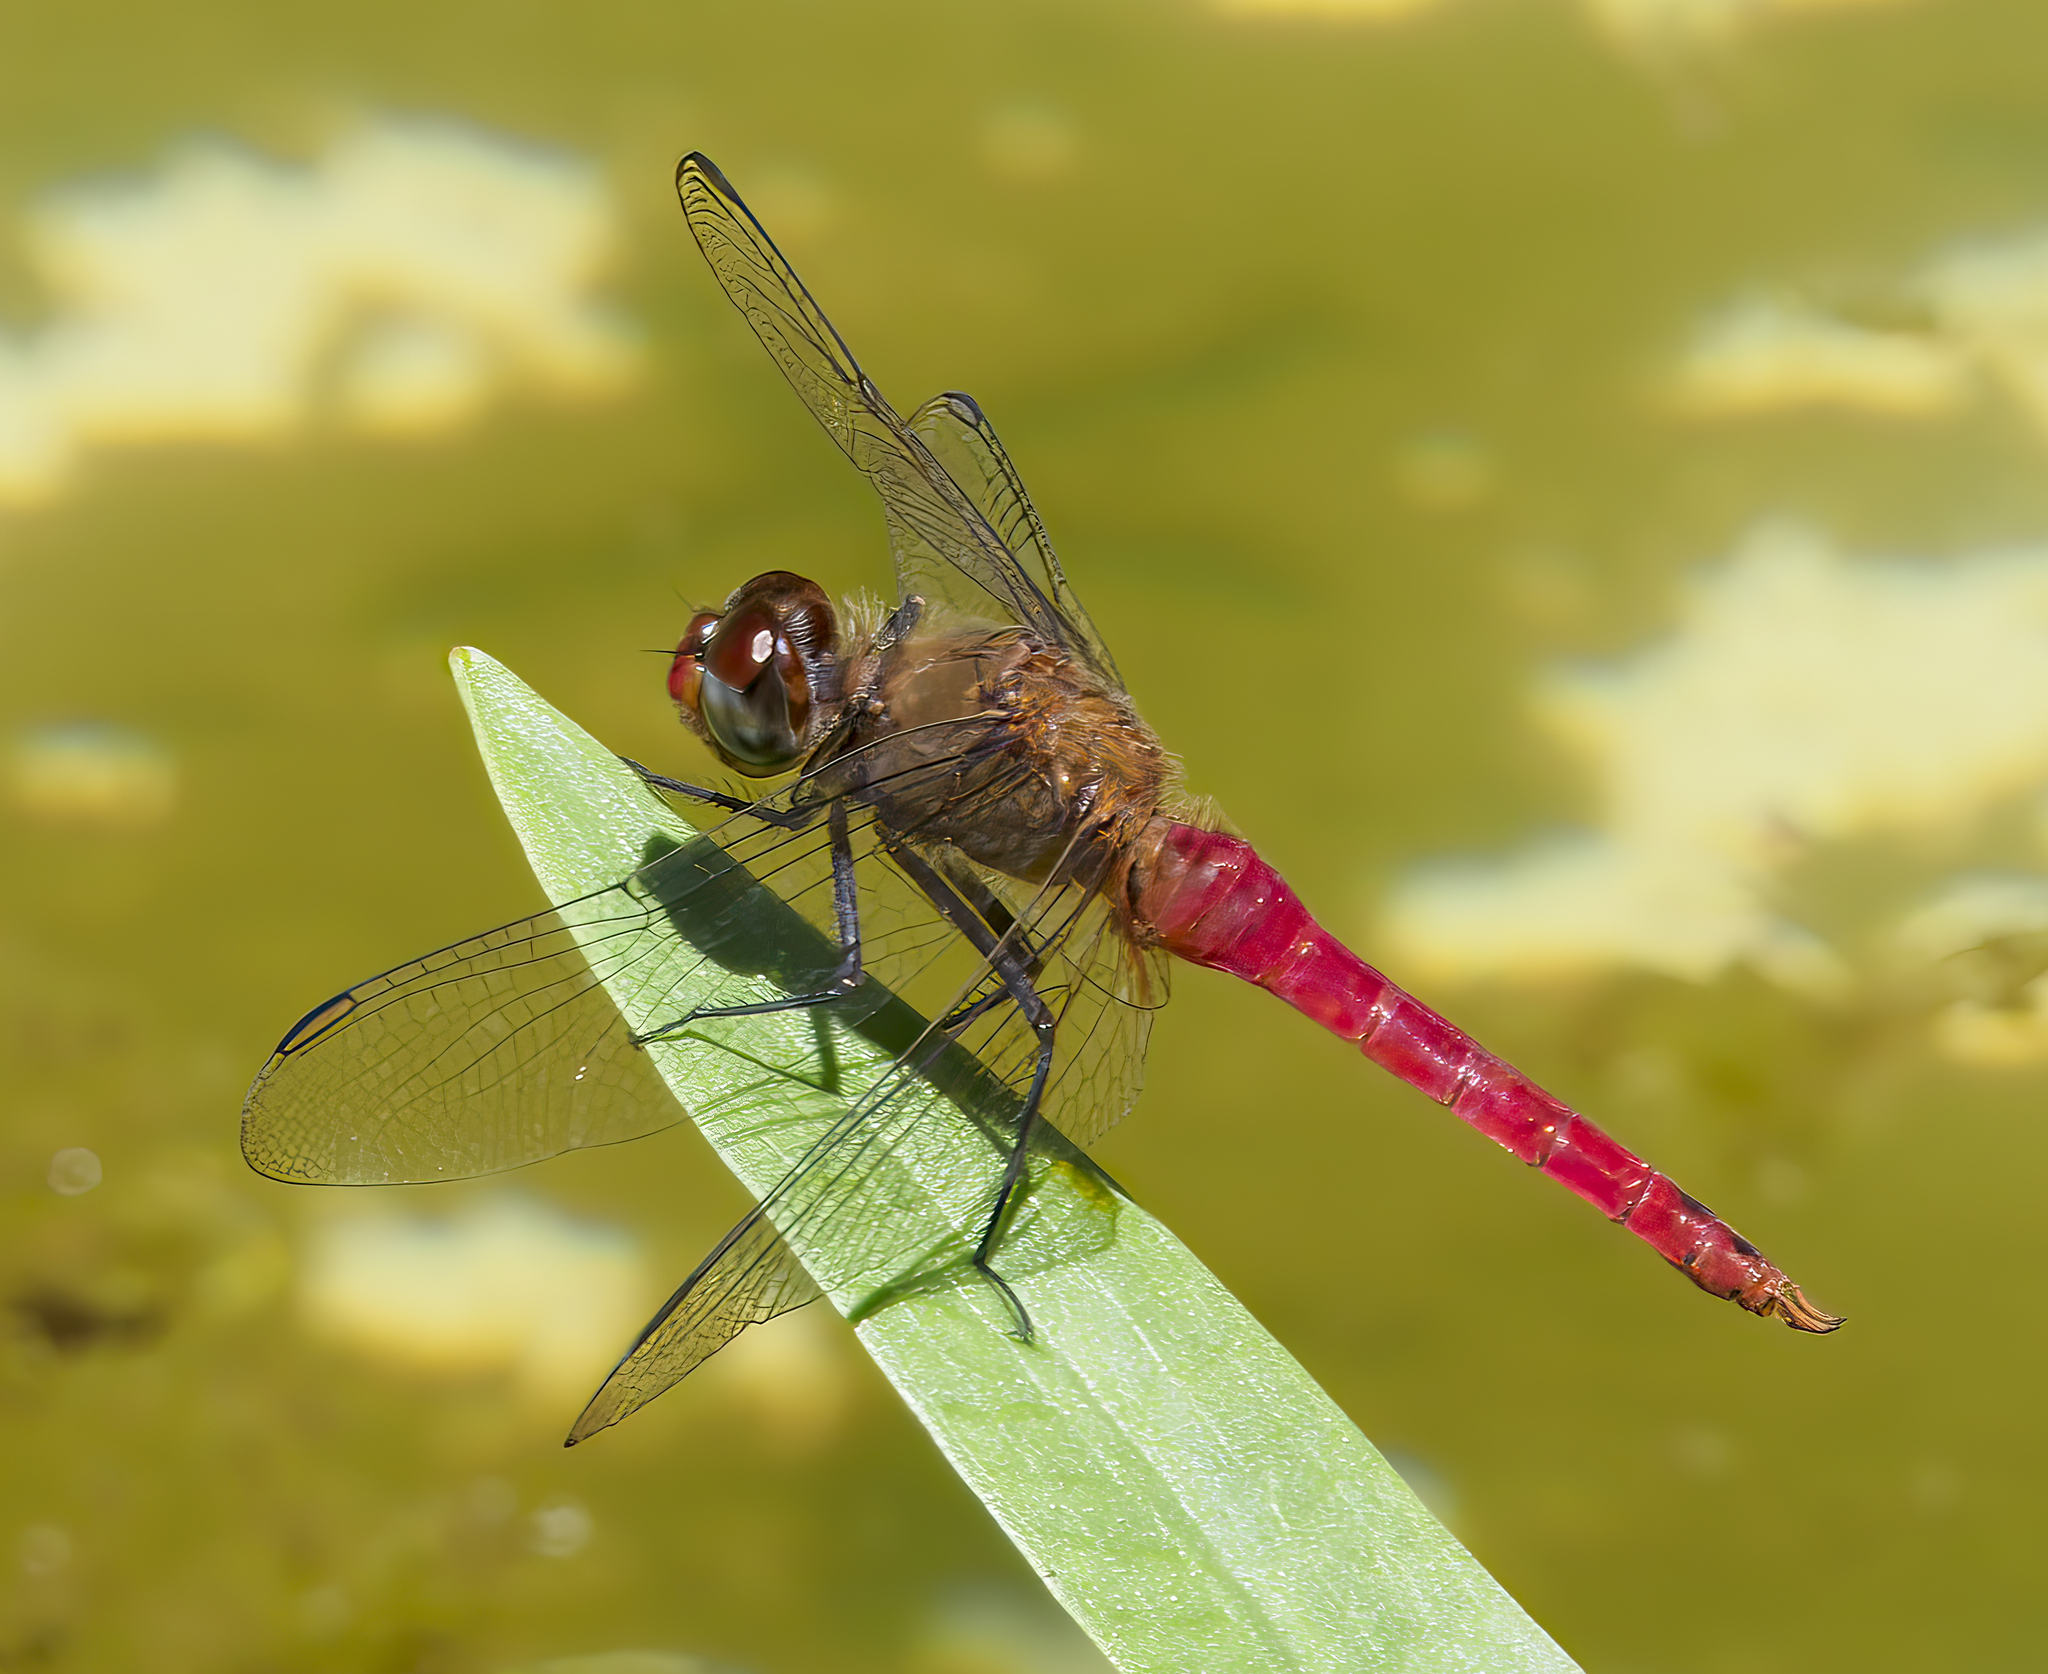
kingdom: Animalia
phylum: Arthropoda
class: Insecta
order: Odonata
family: Libellulidae
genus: Brachymesia
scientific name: Brachymesia furcata
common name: Red-taled pennant
